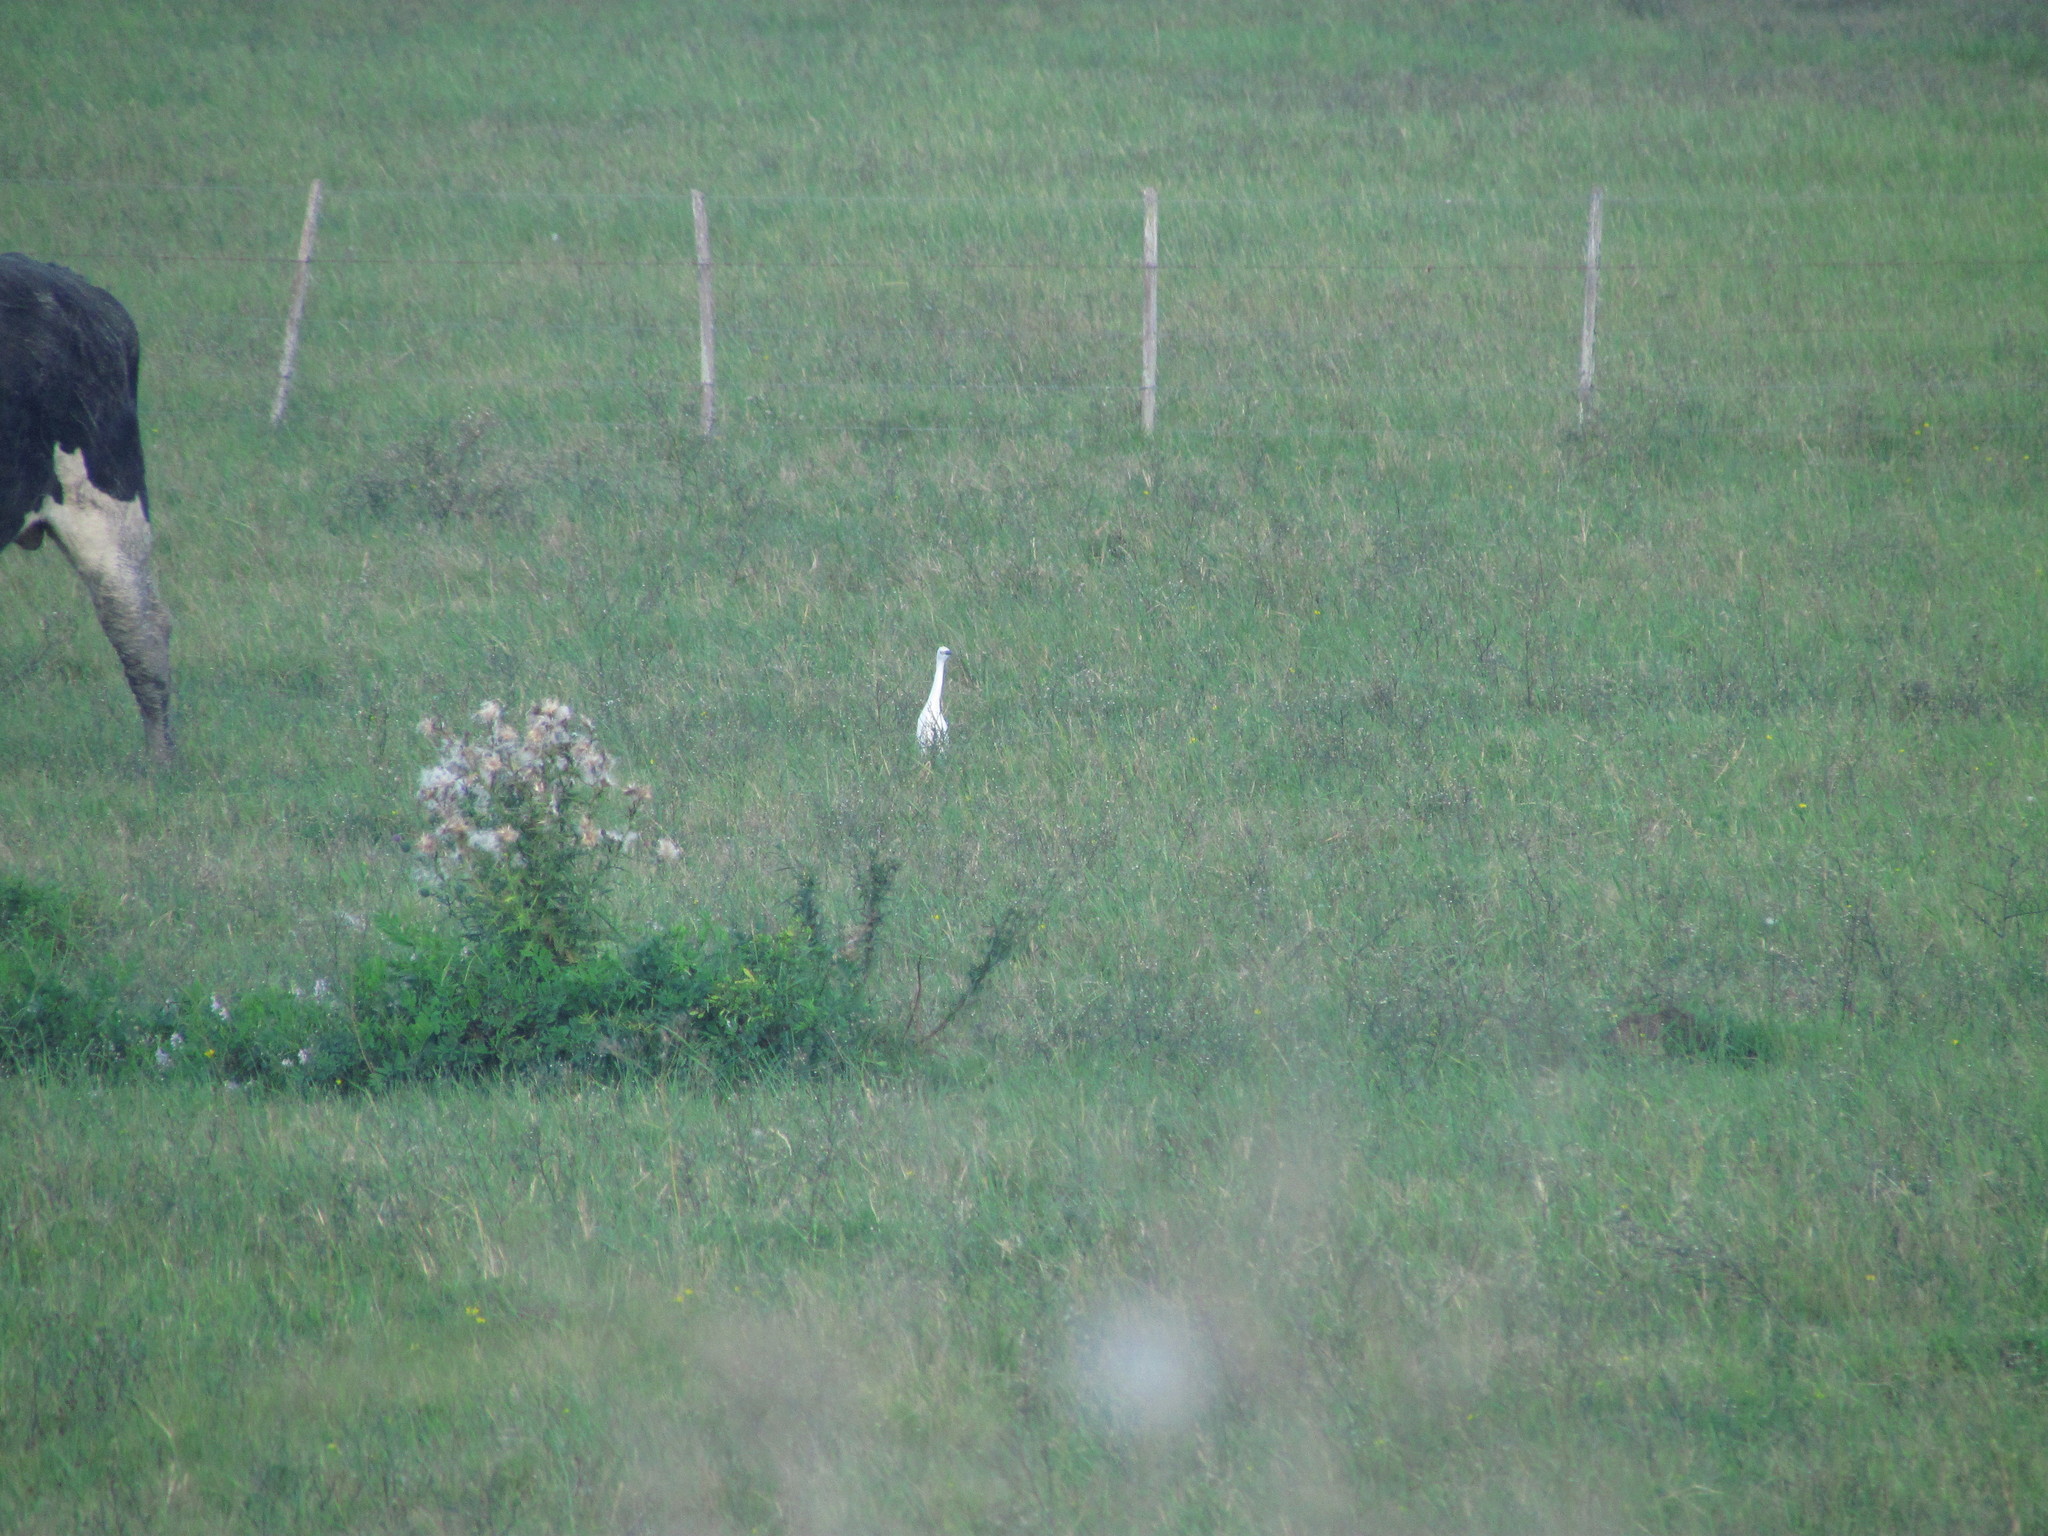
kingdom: Animalia
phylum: Chordata
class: Aves
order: Pelecaniformes
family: Ardeidae
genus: Egretta
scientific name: Egretta thula
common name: Snowy egret
